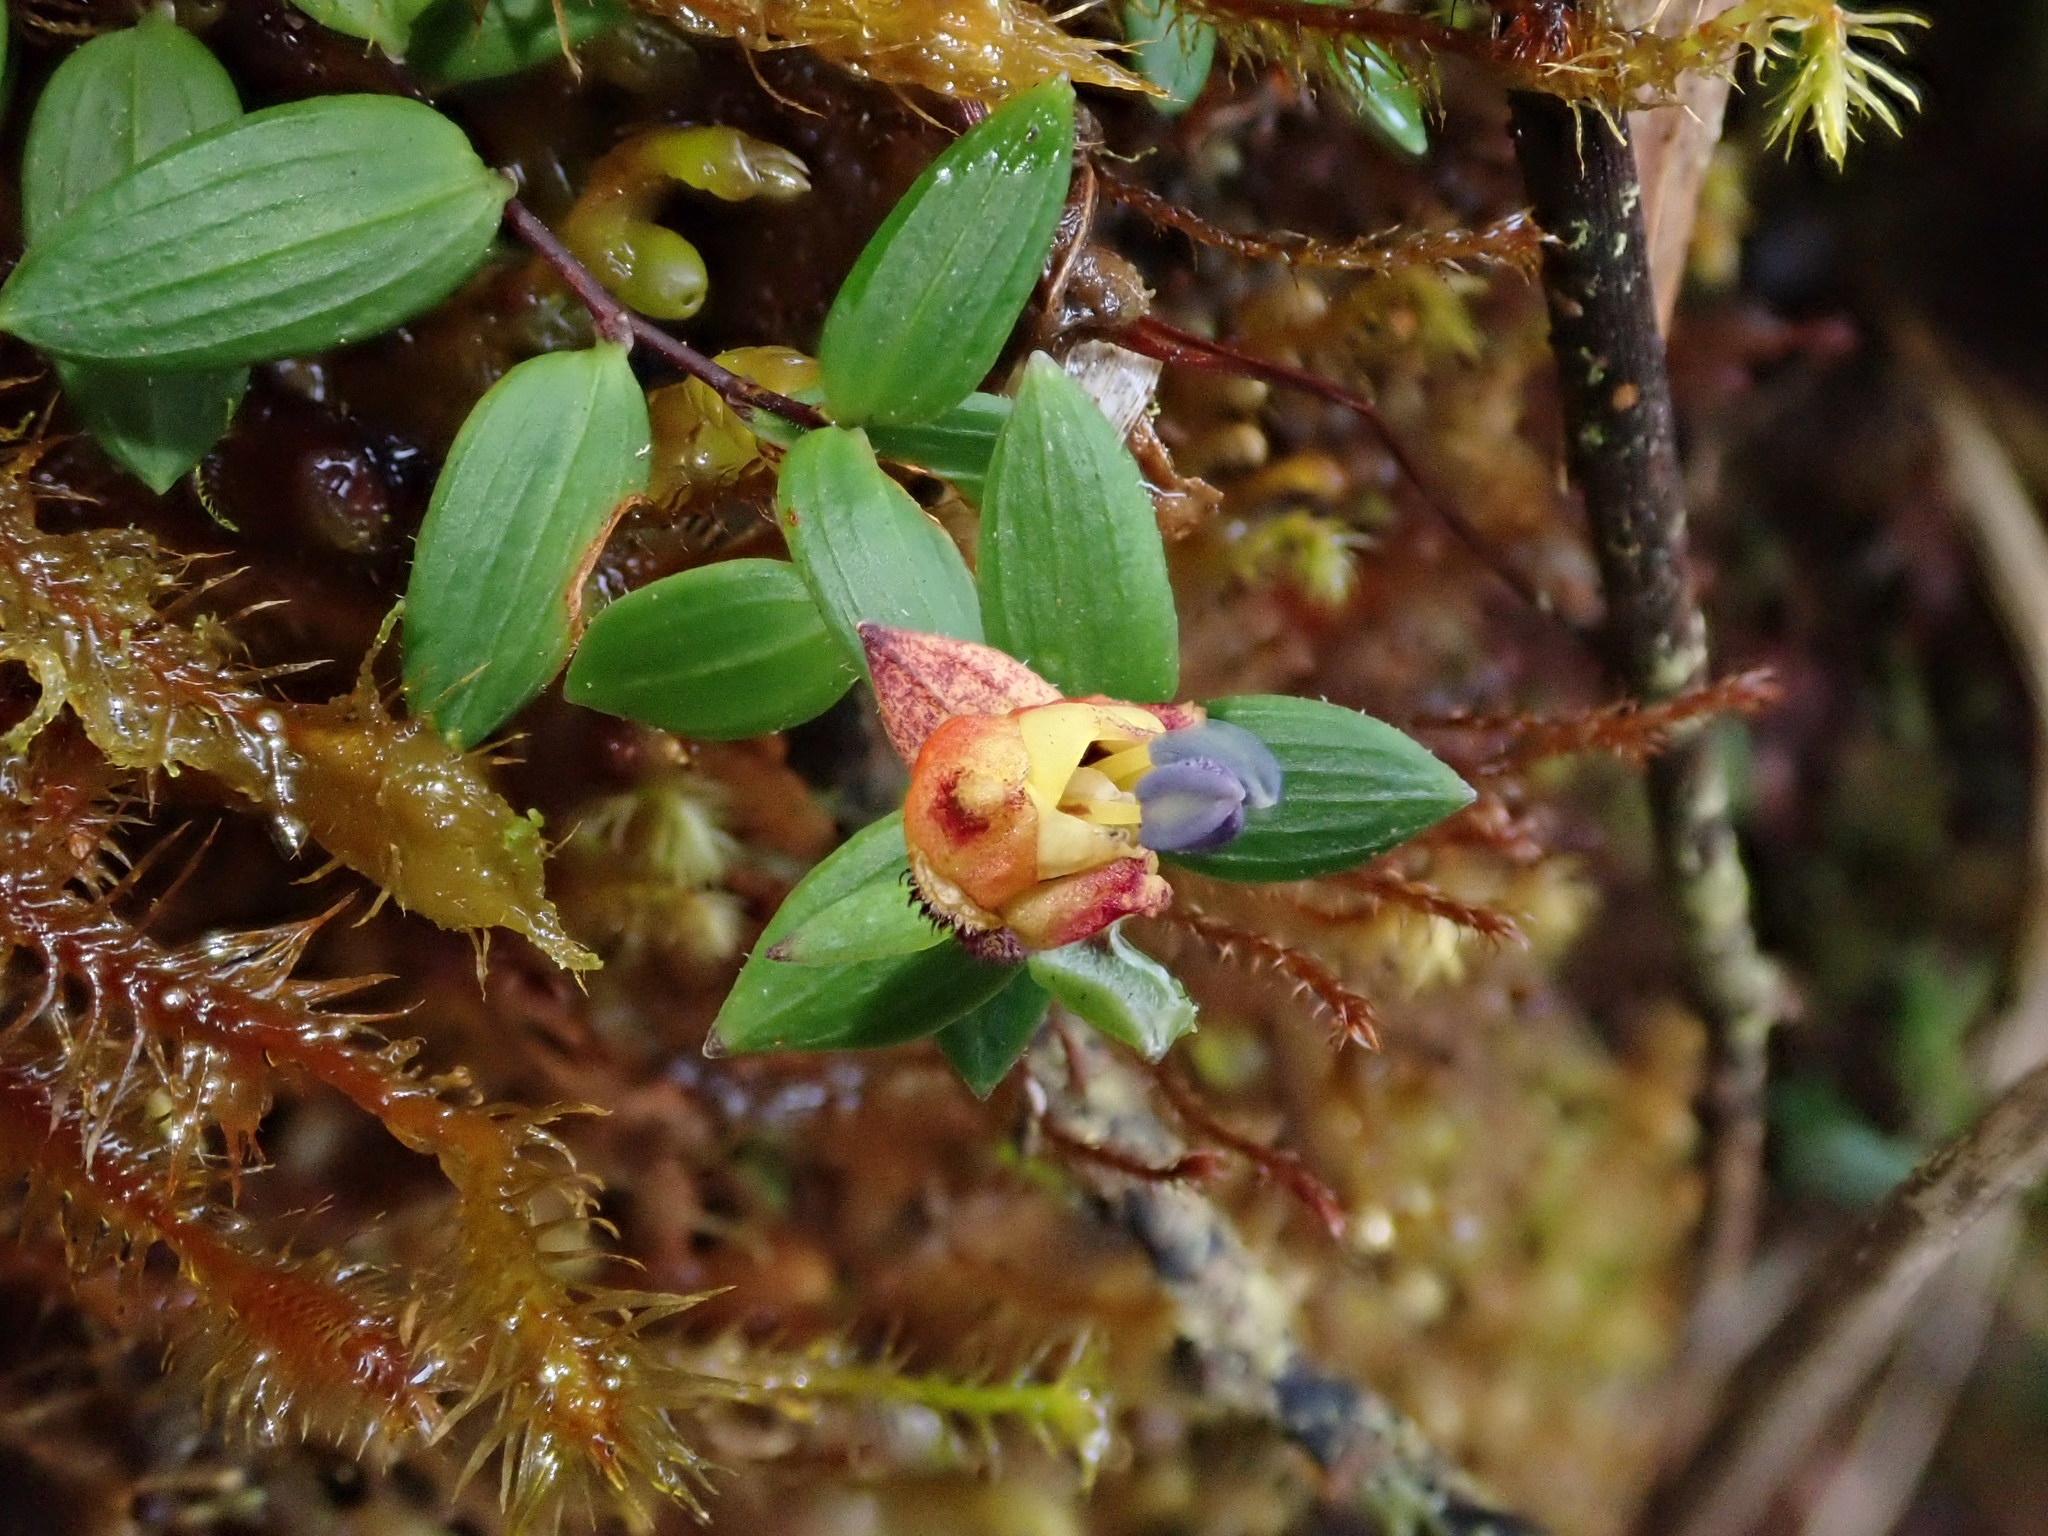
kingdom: Plantae
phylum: Tracheophyta
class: Liliopsida
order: Liliales
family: Alstroemeriaceae
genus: Bomarea
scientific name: Bomarea
